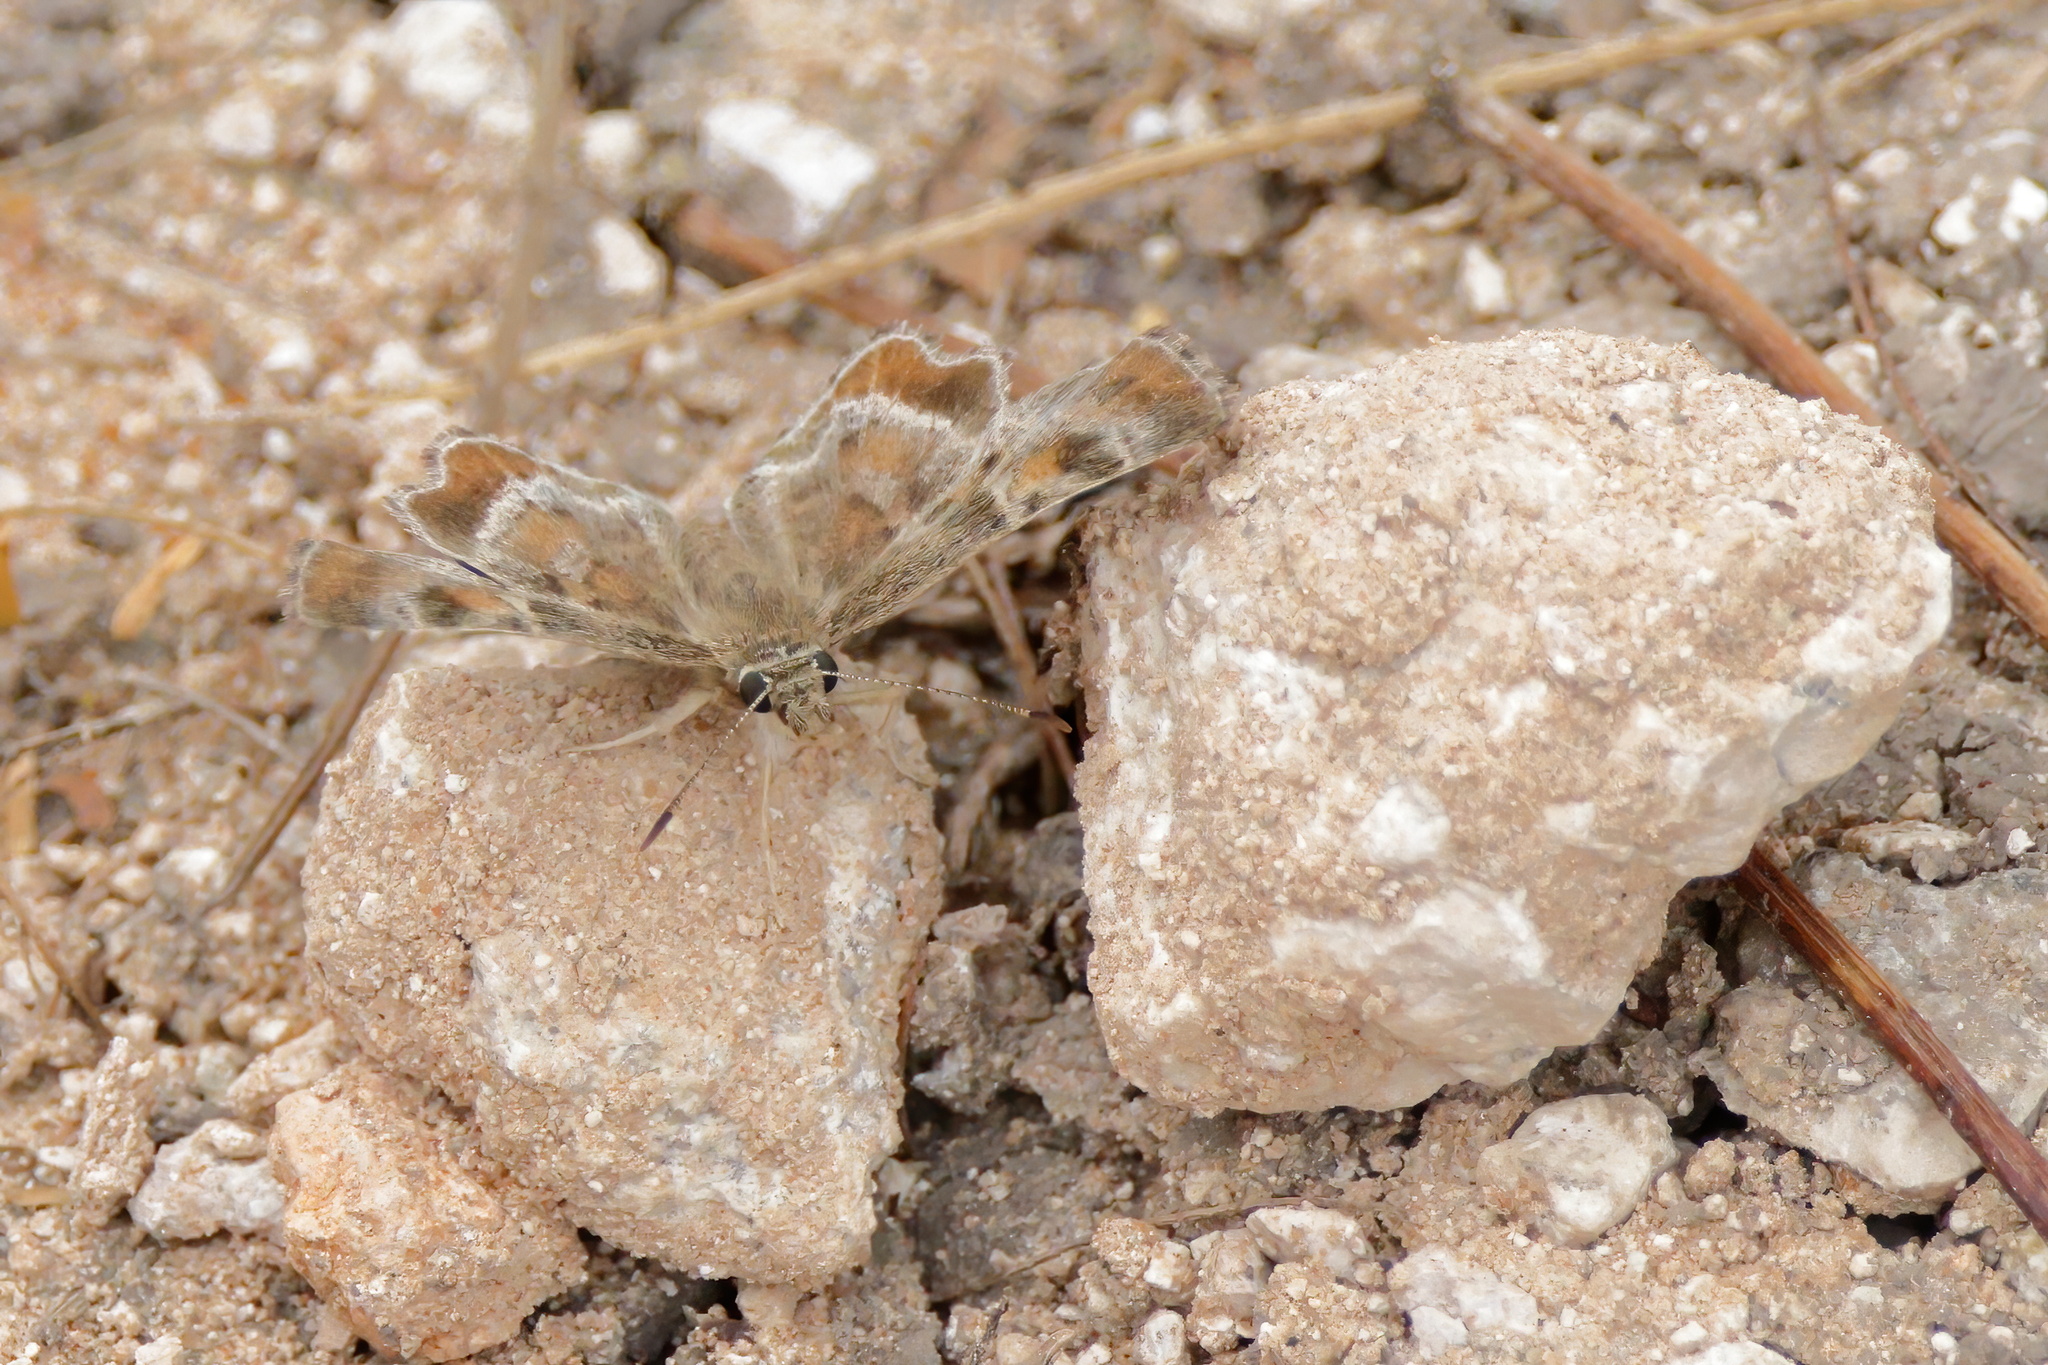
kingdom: Animalia
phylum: Arthropoda
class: Insecta
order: Lepidoptera
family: Hesperiidae
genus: Systasea
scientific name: Systasea pulverulenta
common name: Texas powdered skipper
